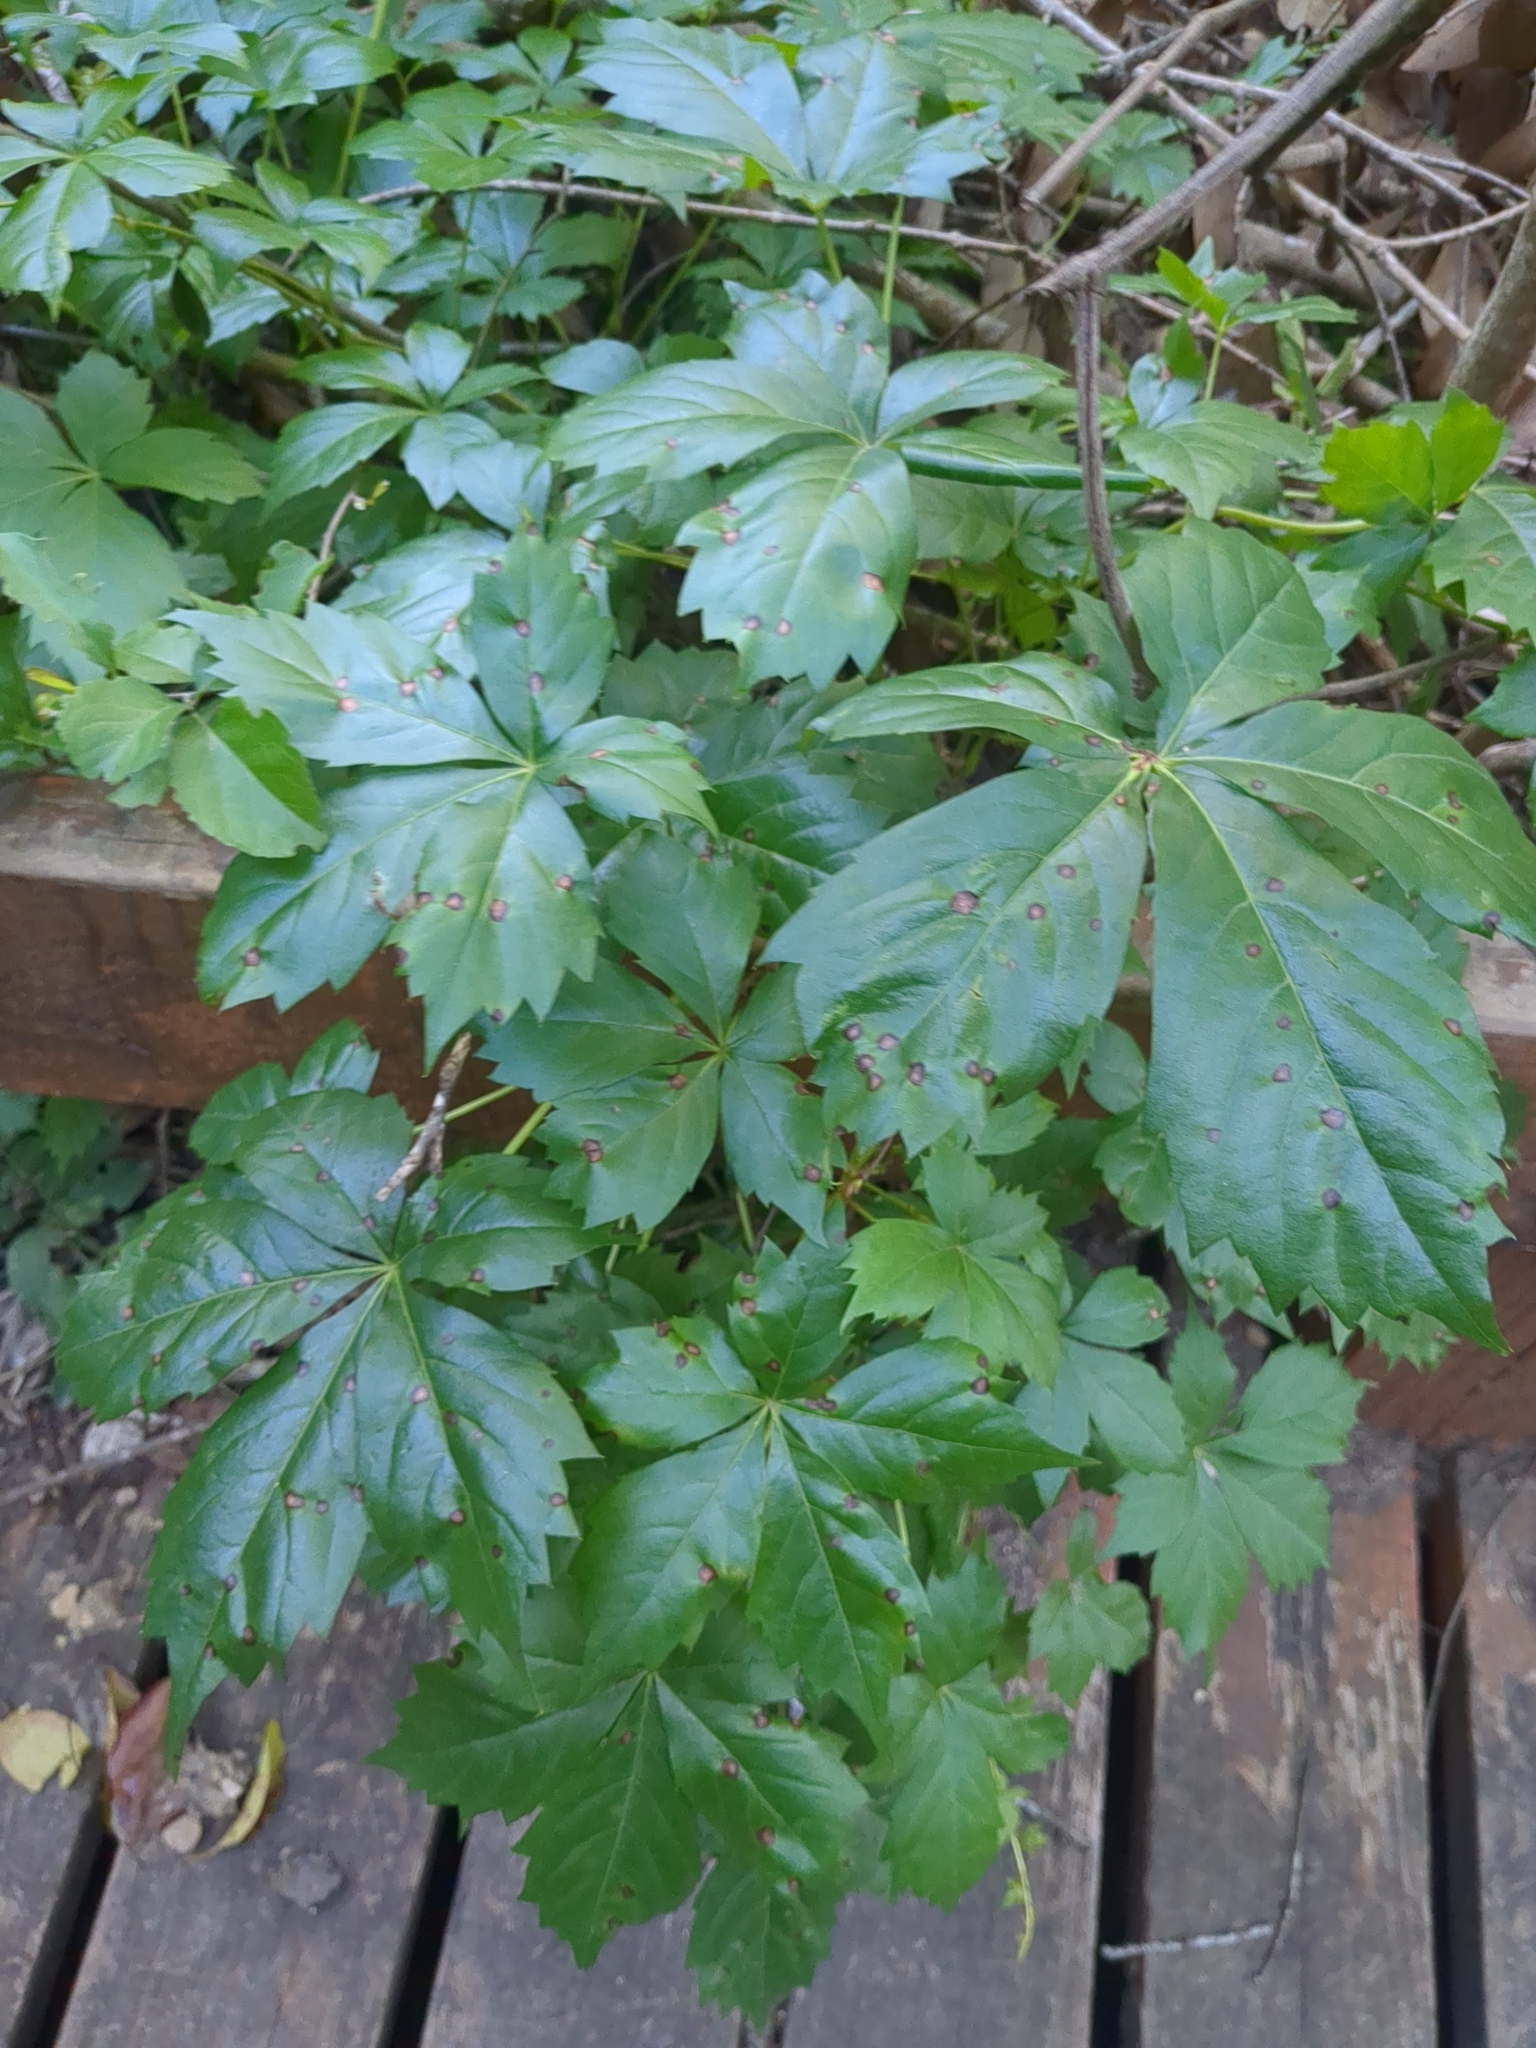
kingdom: Plantae
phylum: Tracheophyta
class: Magnoliopsida
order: Vitales
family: Vitaceae
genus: Parthenocissus
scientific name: Parthenocissus quinquefolia
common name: Virginia-creeper
